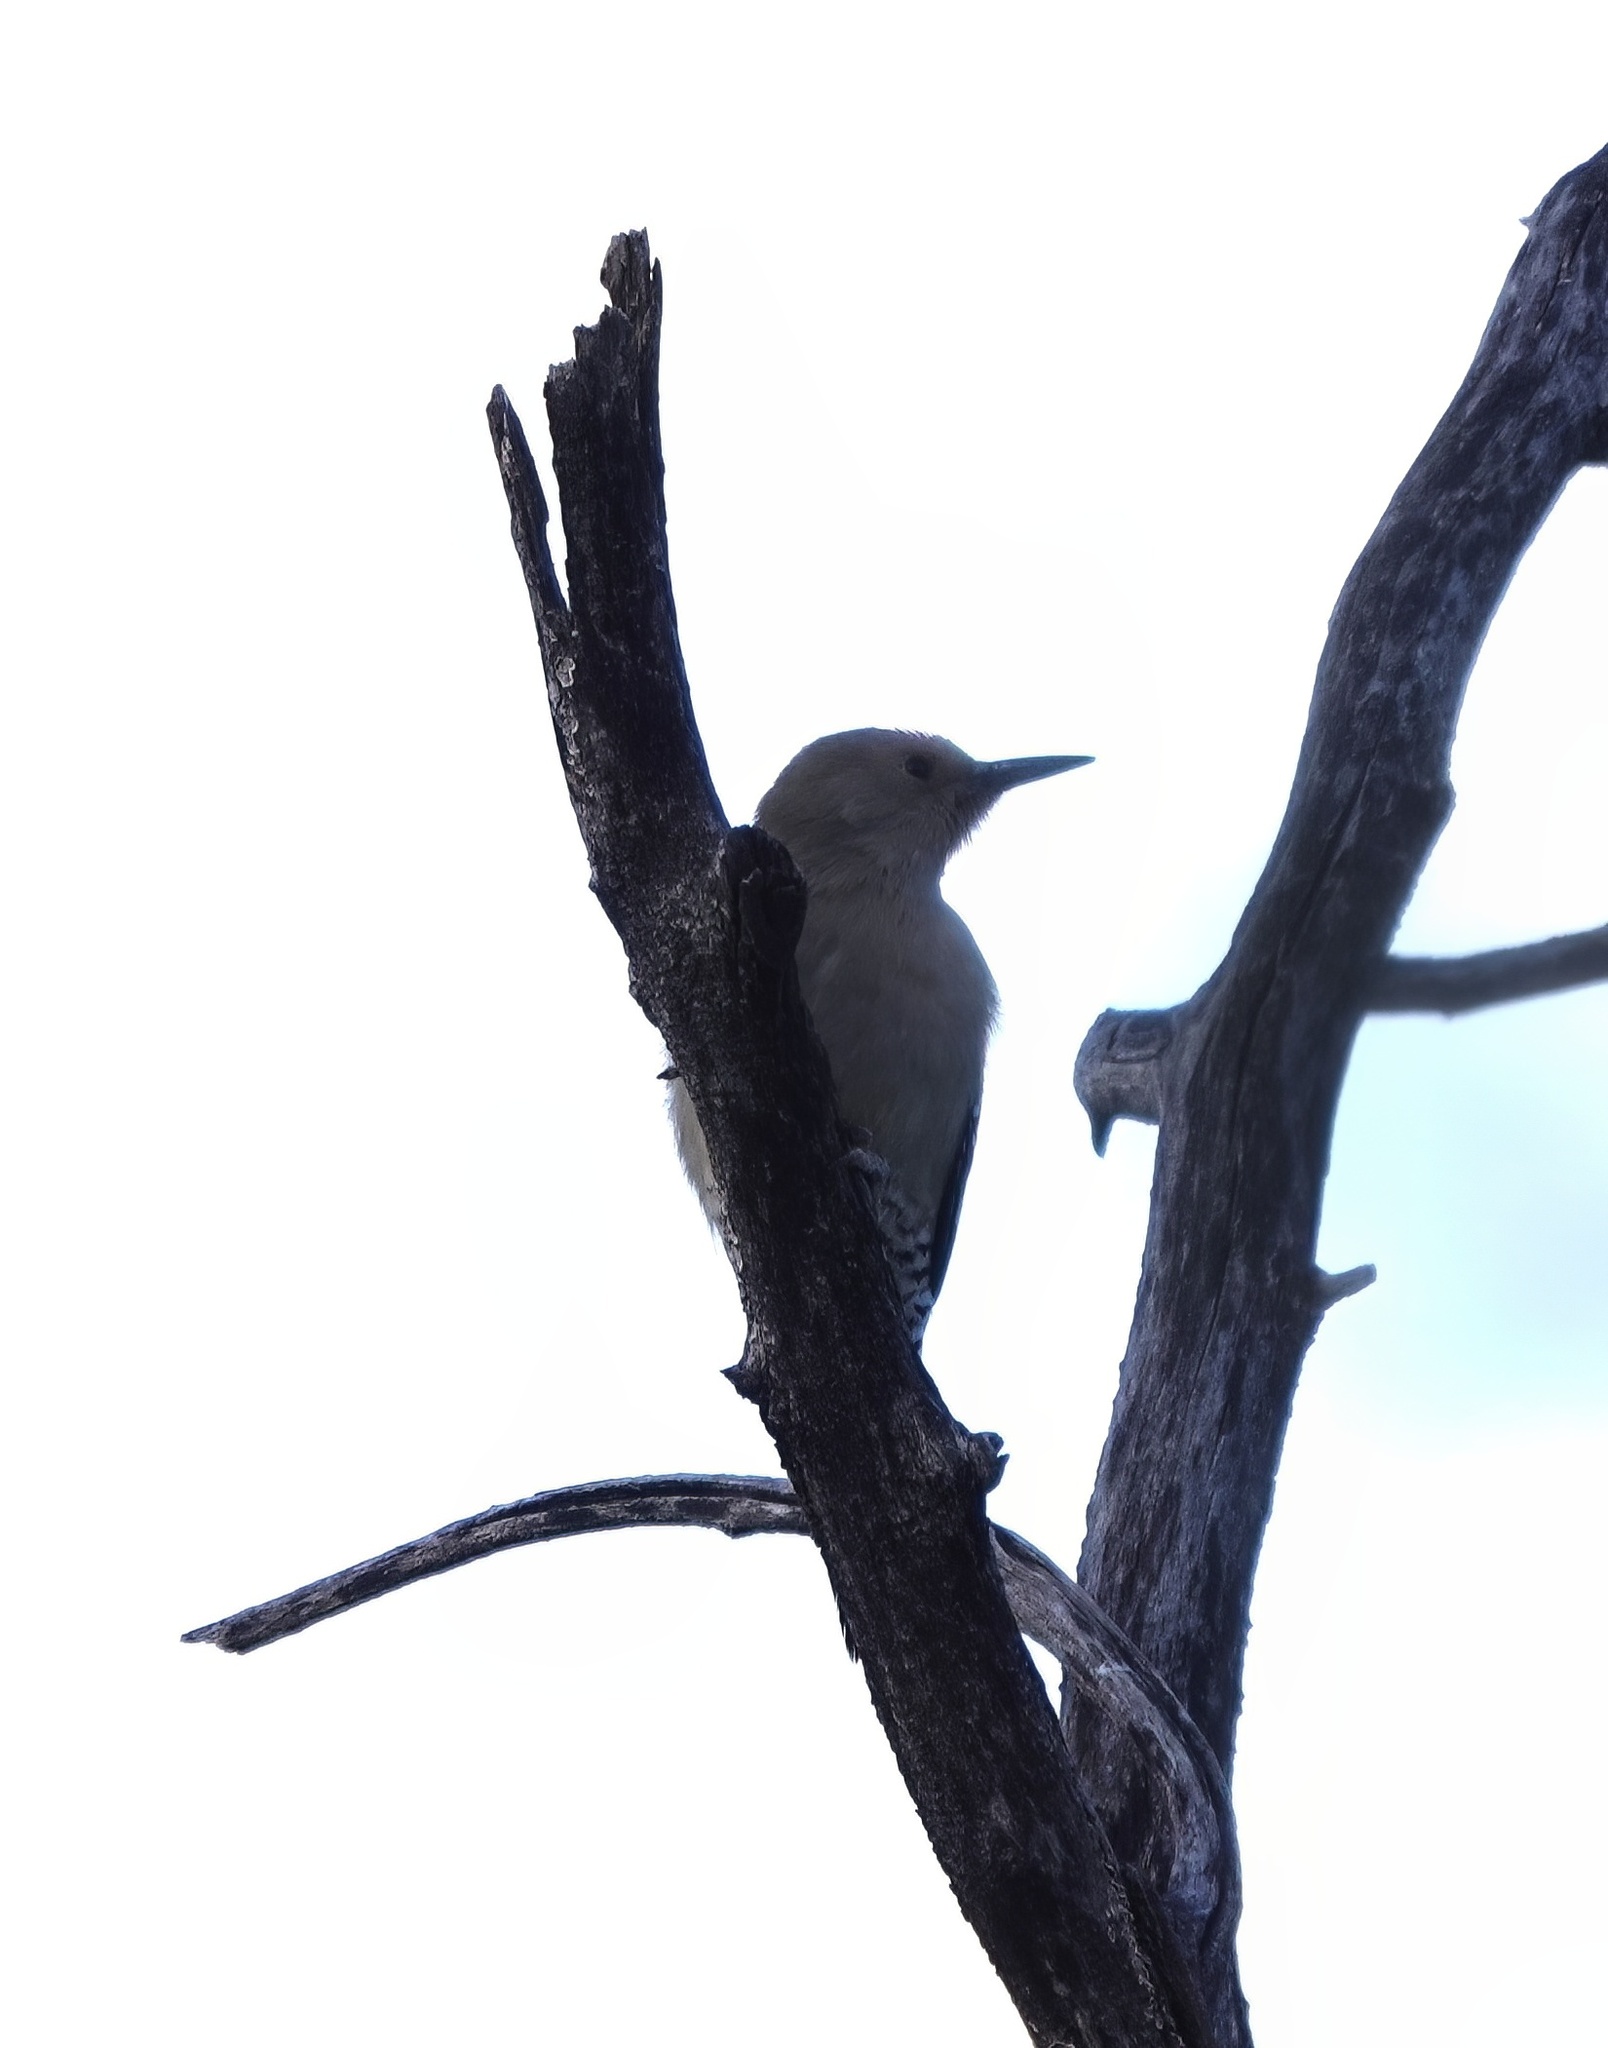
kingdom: Animalia
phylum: Chordata
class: Aves
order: Piciformes
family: Picidae
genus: Melanerpes
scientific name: Melanerpes uropygialis
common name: Gila woodpecker
